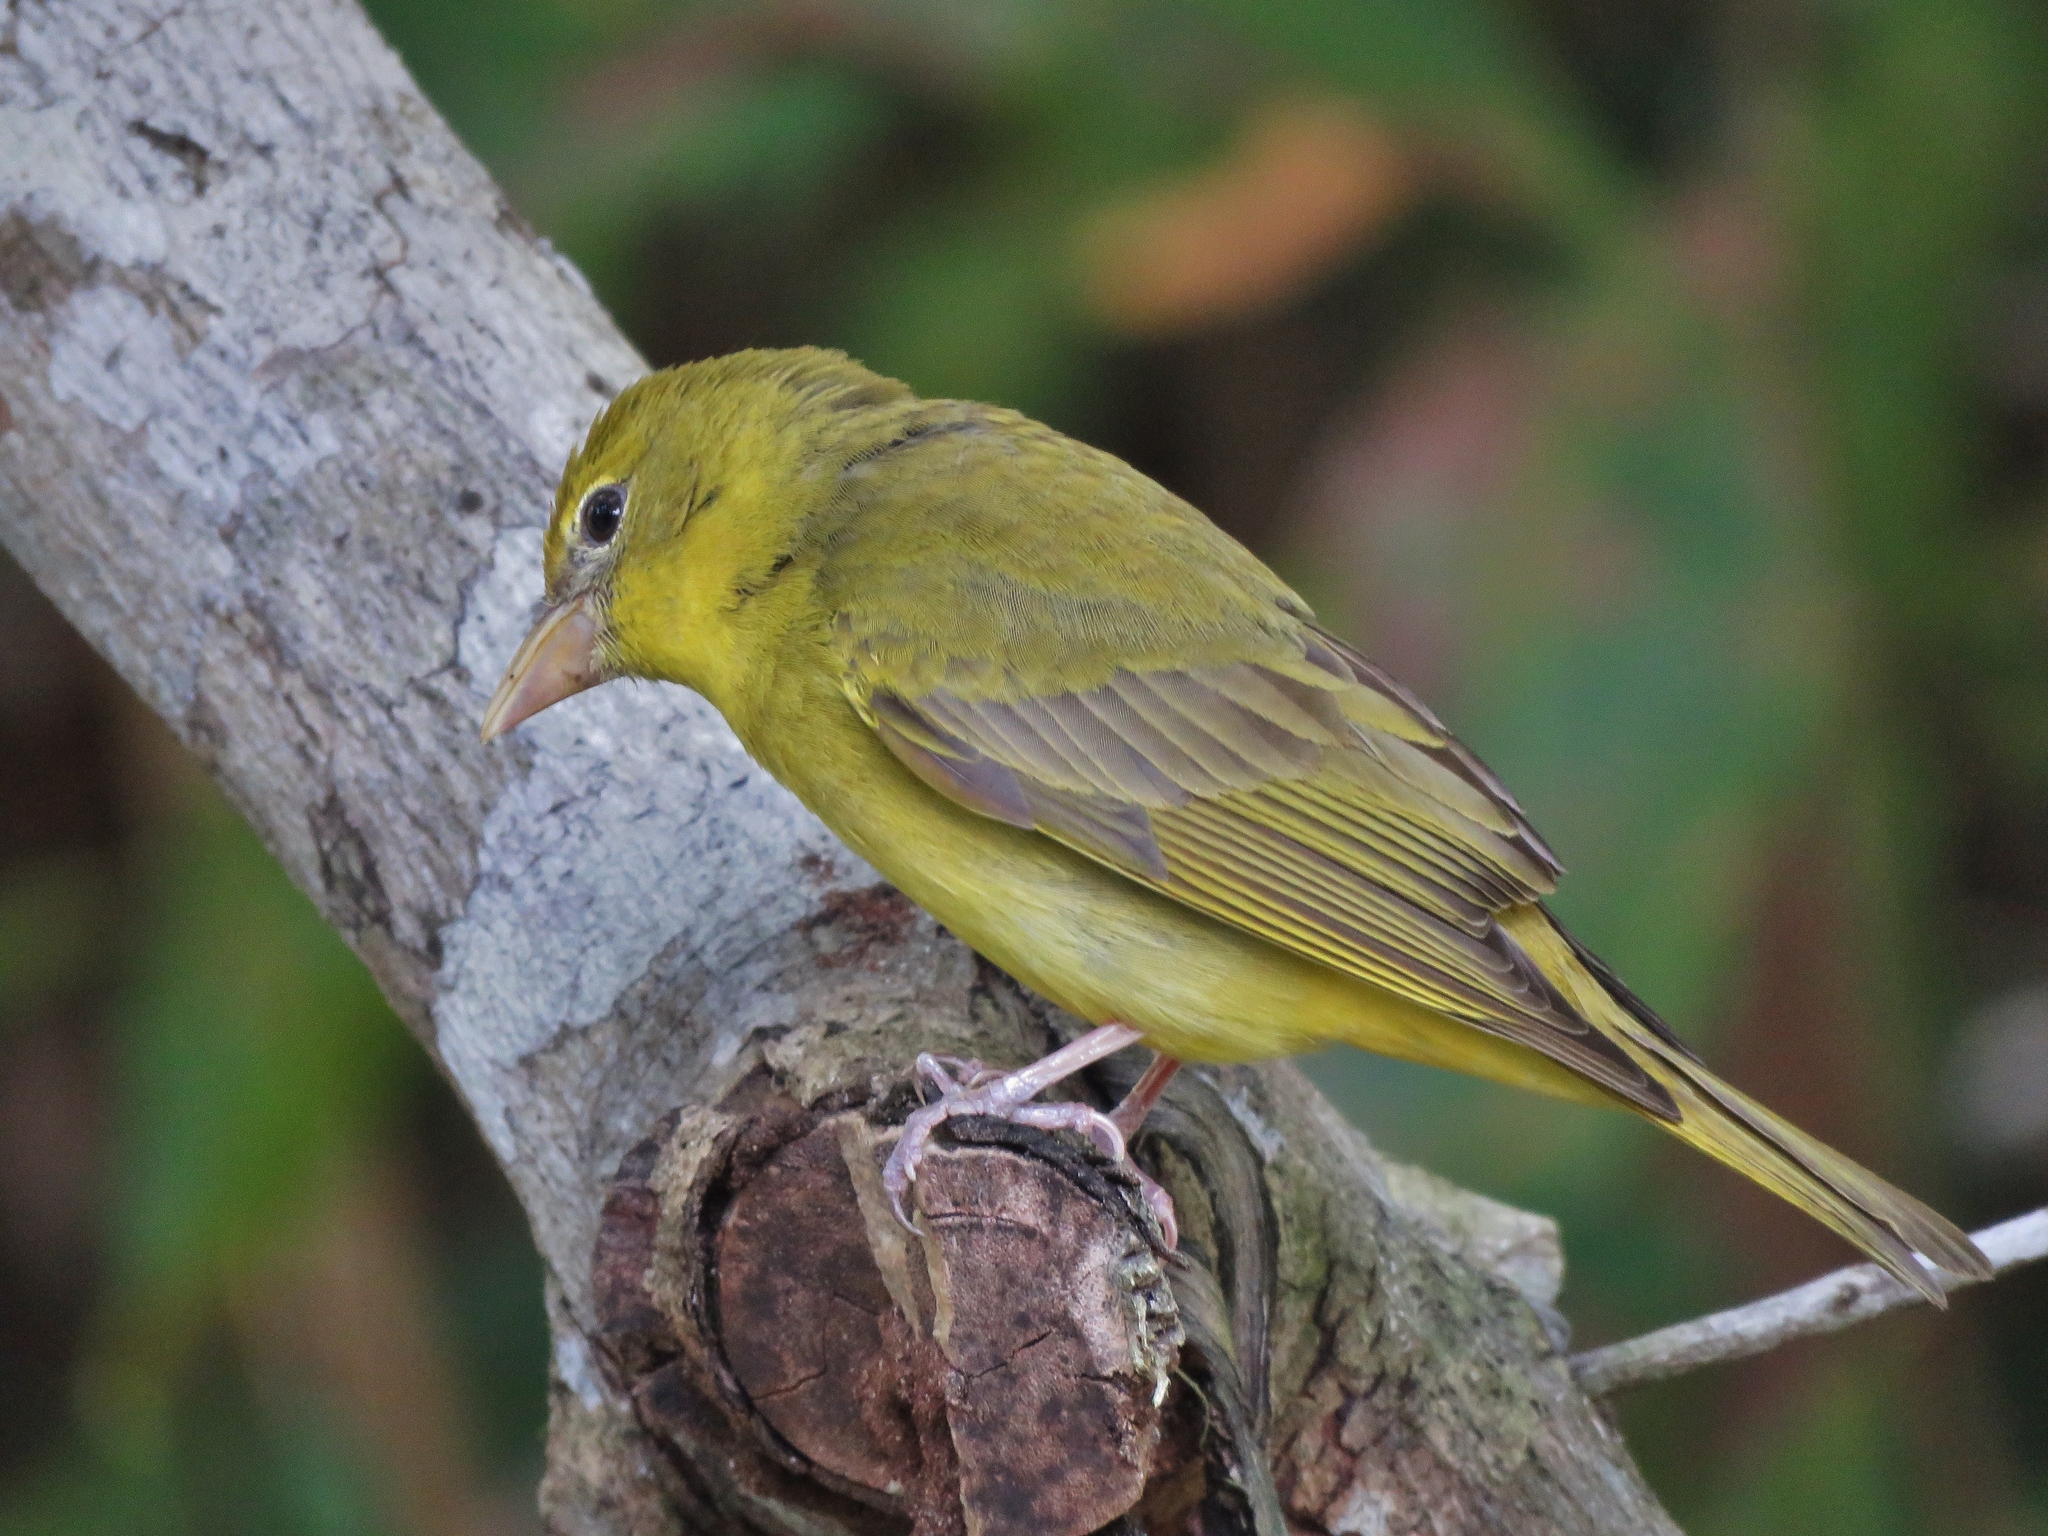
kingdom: Animalia
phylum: Chordata
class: Aves
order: Passeriformes
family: Cardinalidae
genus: Piranga
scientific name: Piranga rubra
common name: Summer tanager
